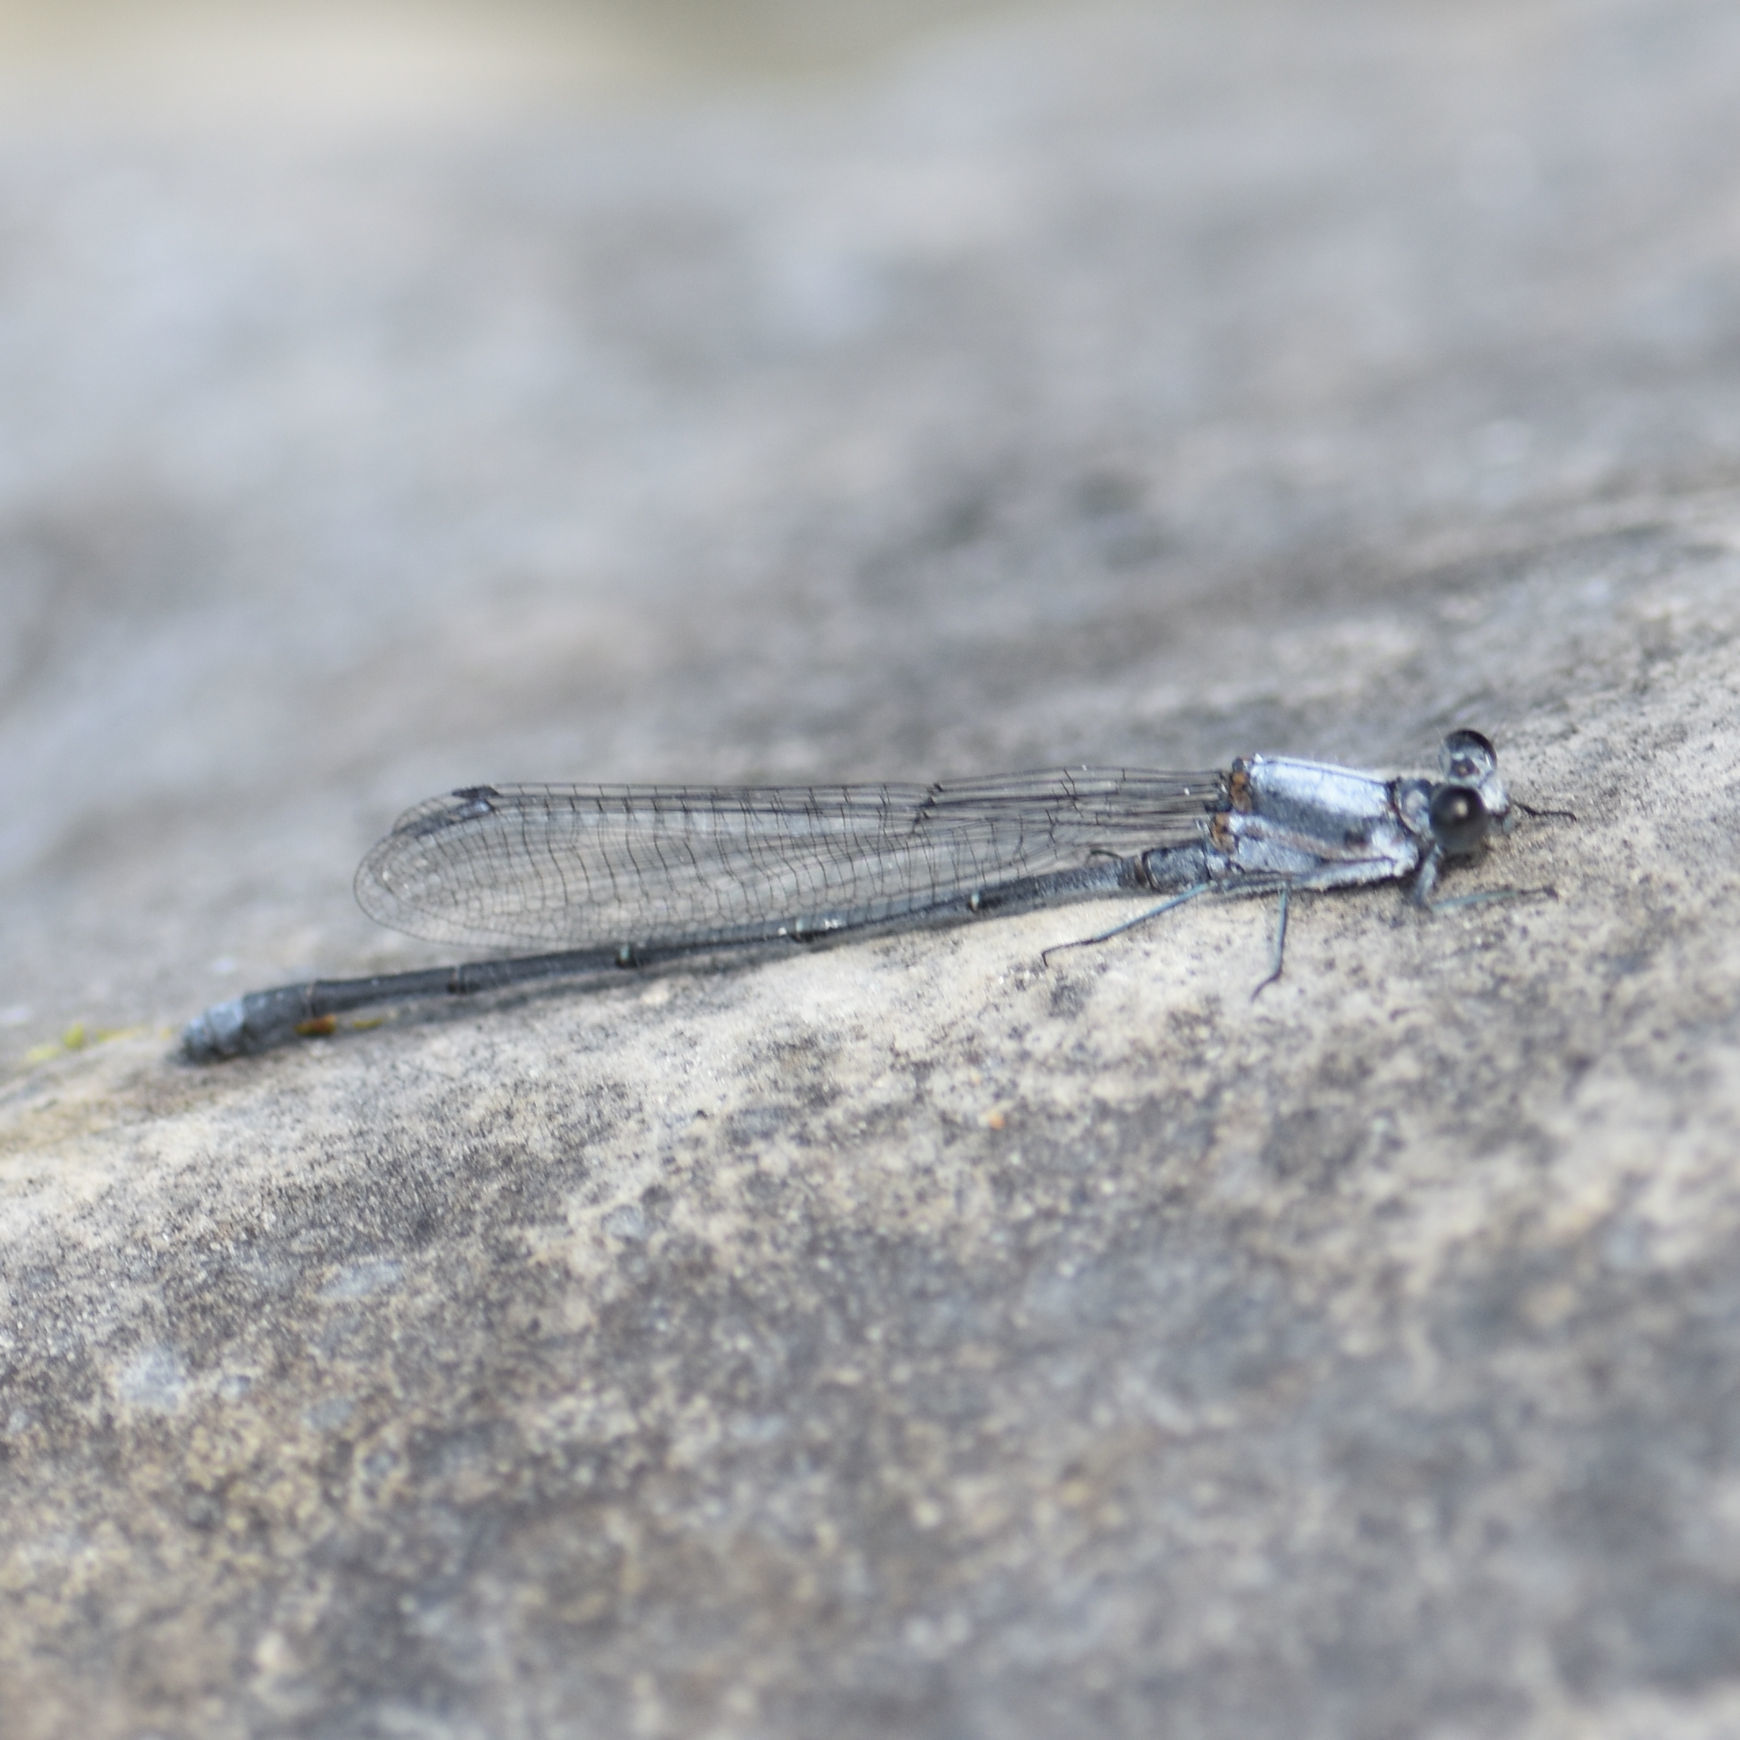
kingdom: Animalia
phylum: Arthropoda
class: Insecta
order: Odonata
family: Coenagrionidae
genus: Argia
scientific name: Argia moesta
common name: Powdered dancer
